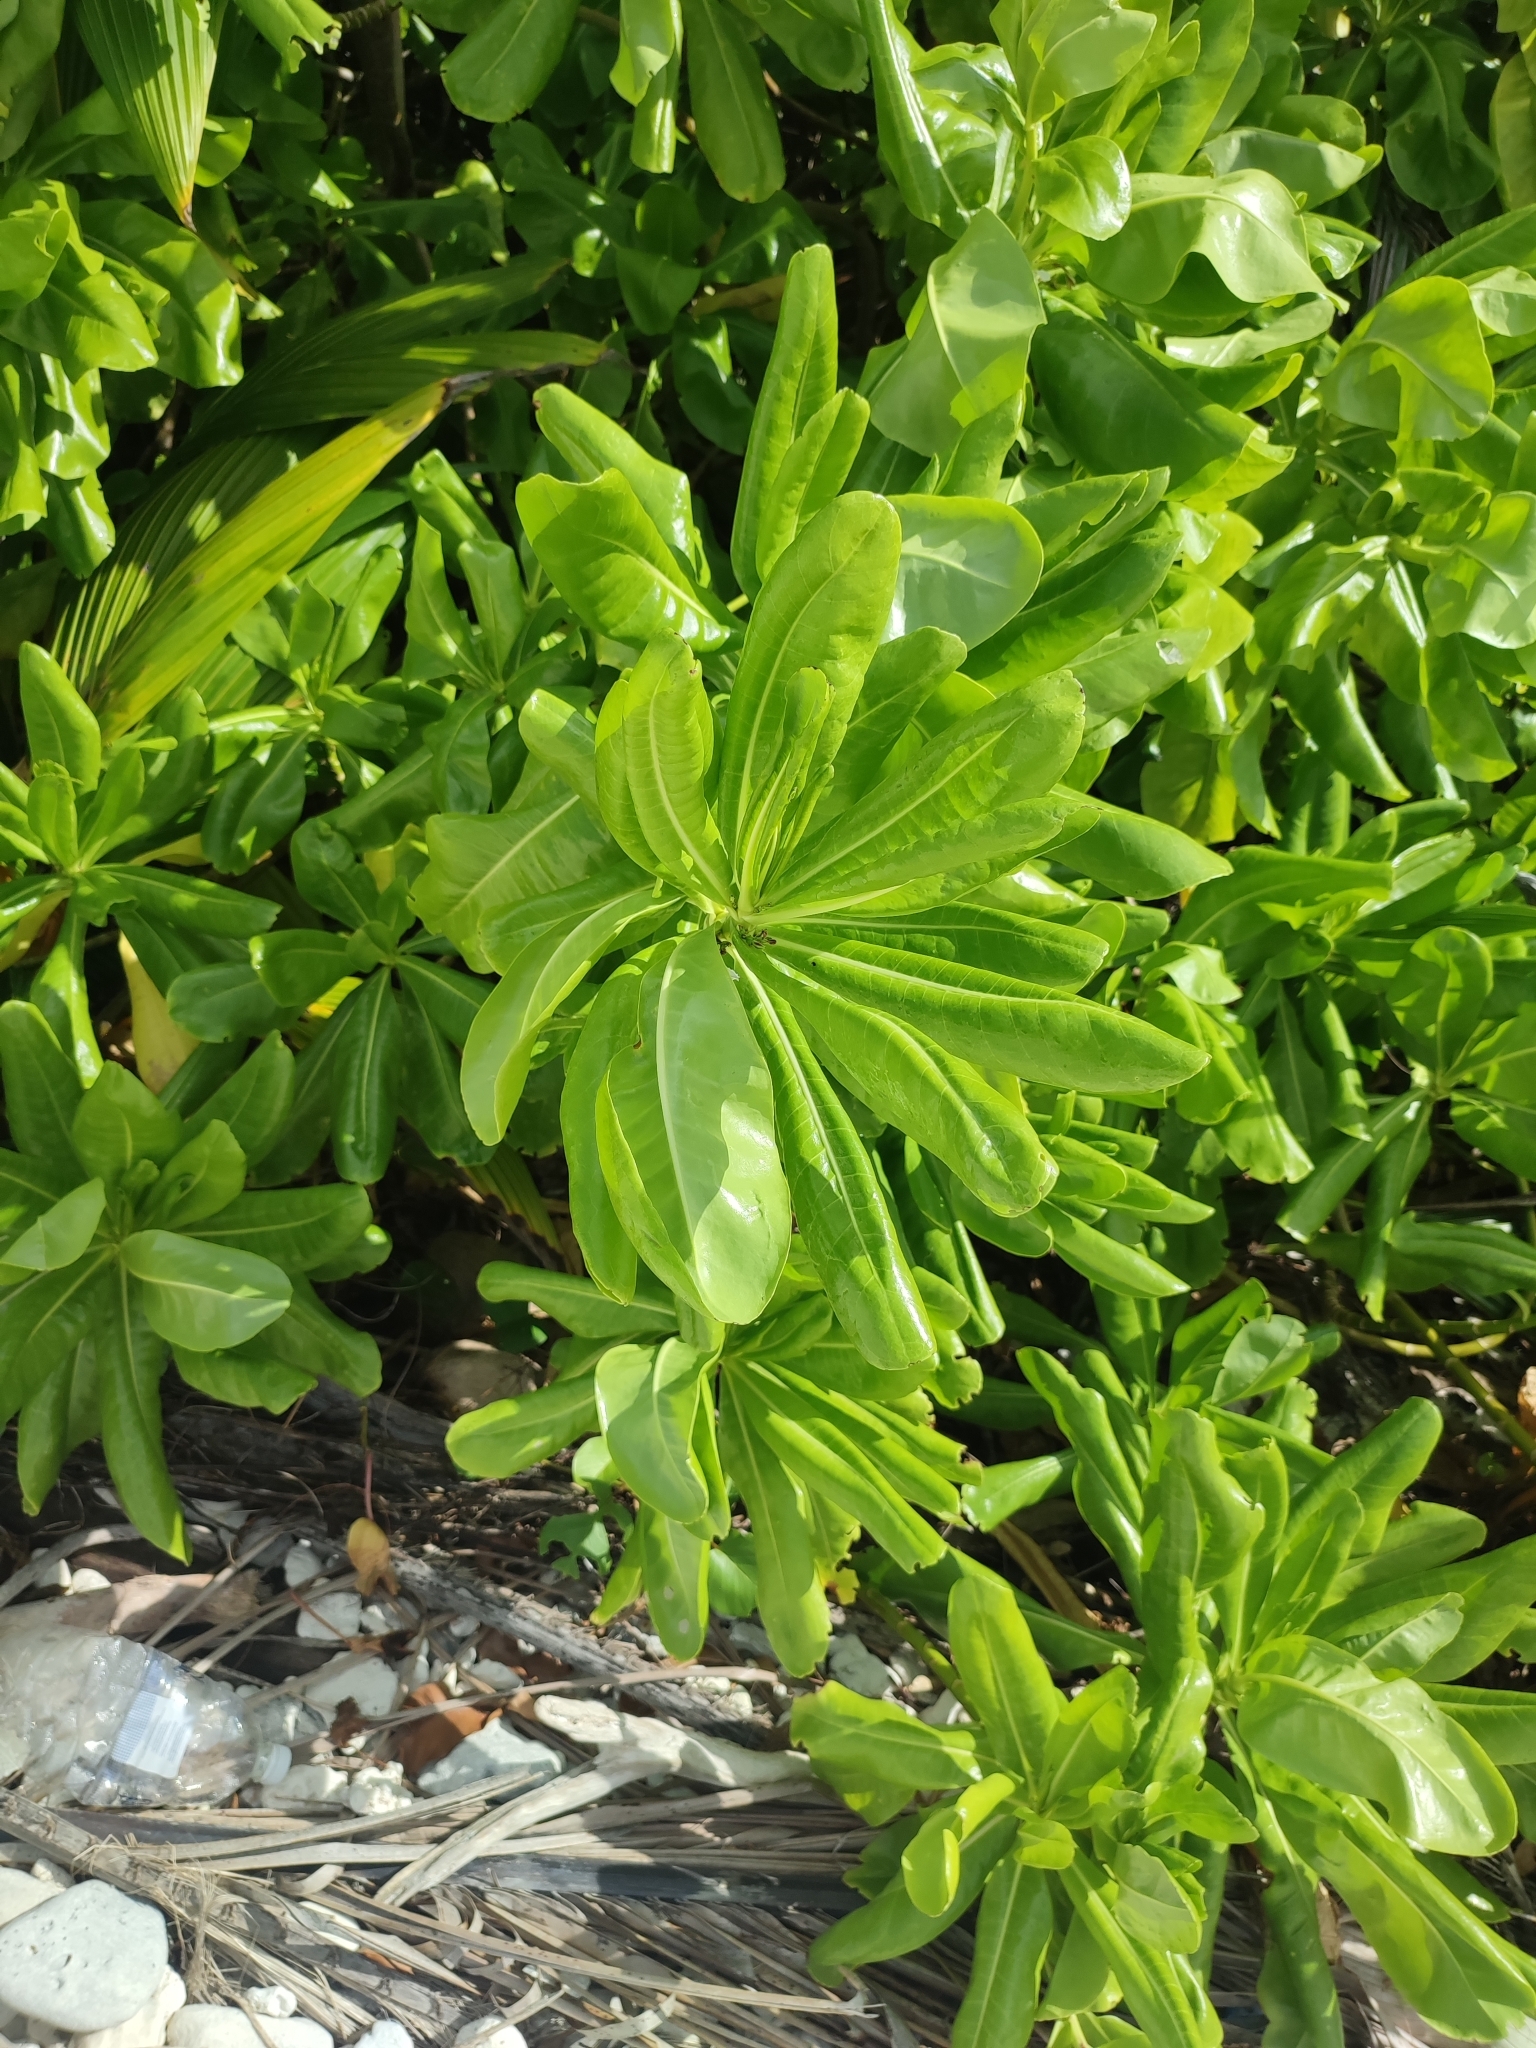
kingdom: Plantae
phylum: Tracheophyta
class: Magnoliopsida
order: Asterales
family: Goodeniaceae
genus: Scaevola
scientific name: Scaevola taccada
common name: Sea lettucetree
